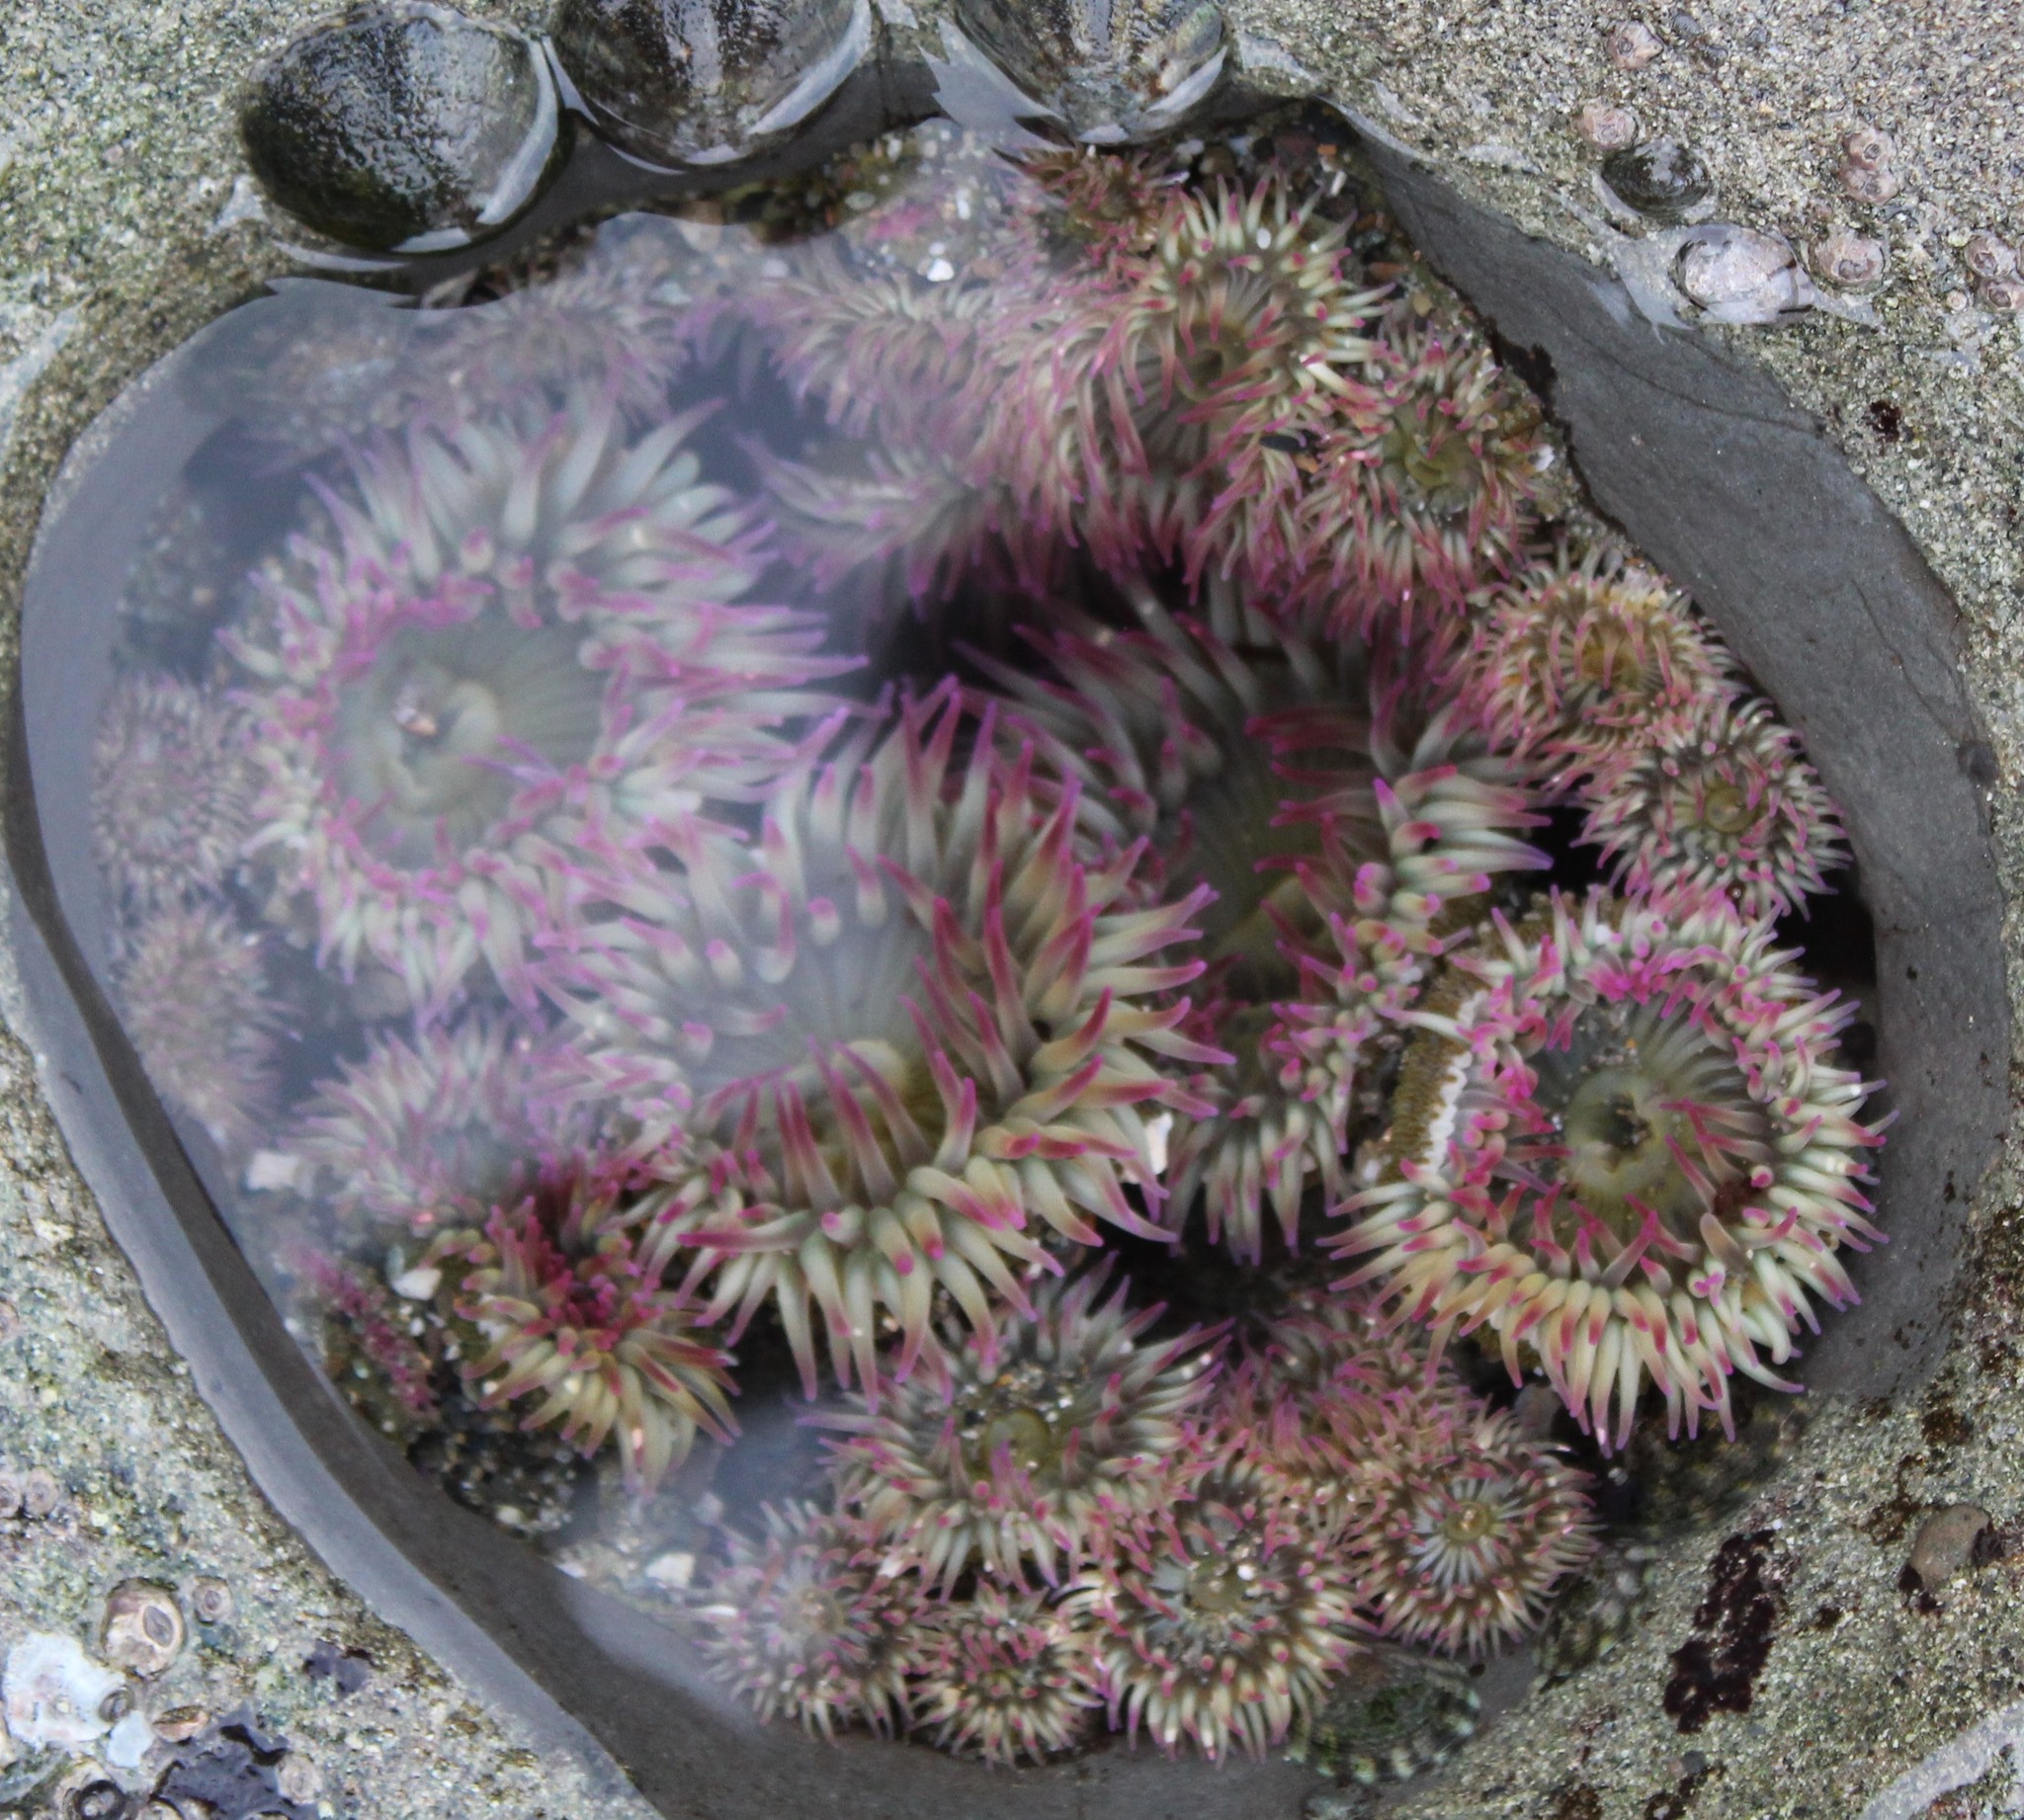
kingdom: Animalia
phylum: Cnidaria
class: Anthozoa
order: Actiniaria
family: Actiniidae
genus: Anthopleura
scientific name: Anthopleura elegantissima
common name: Clonal anemone
